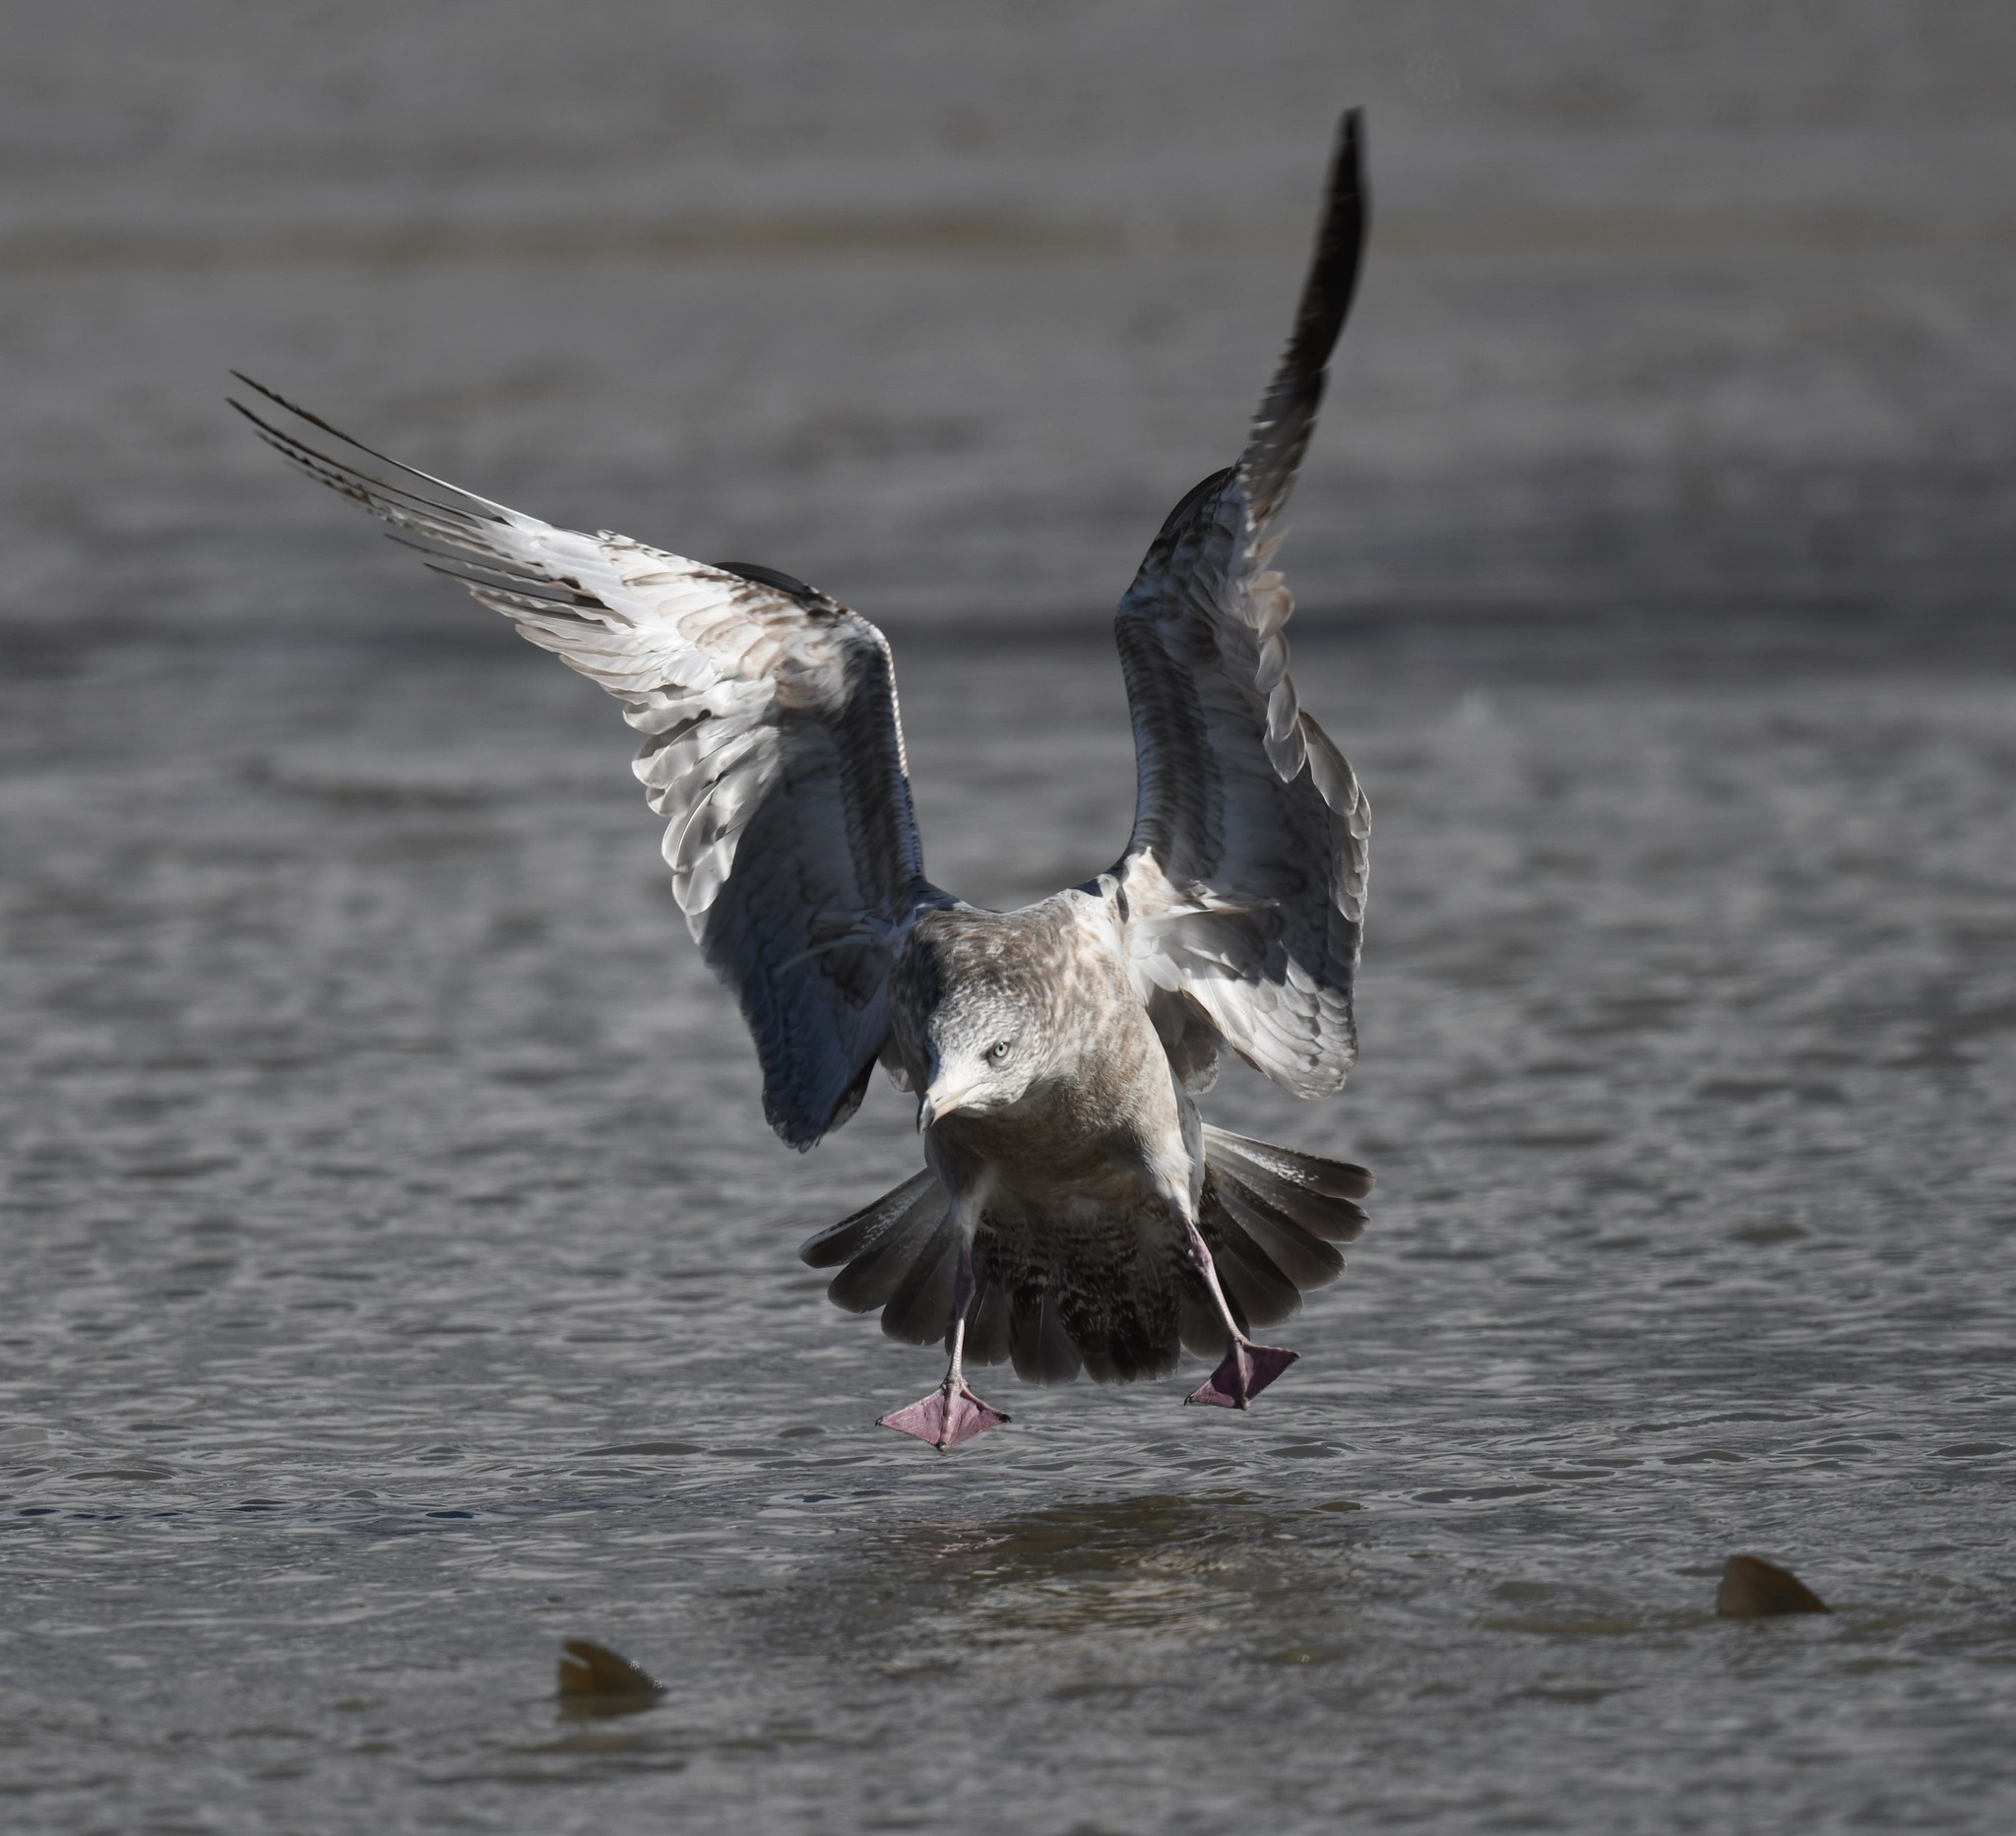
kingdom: Animalia
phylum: Chordata
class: Aves
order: Charadriiformes
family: Laridae
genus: Larus
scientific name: Larus argentatus
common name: Herring gull
